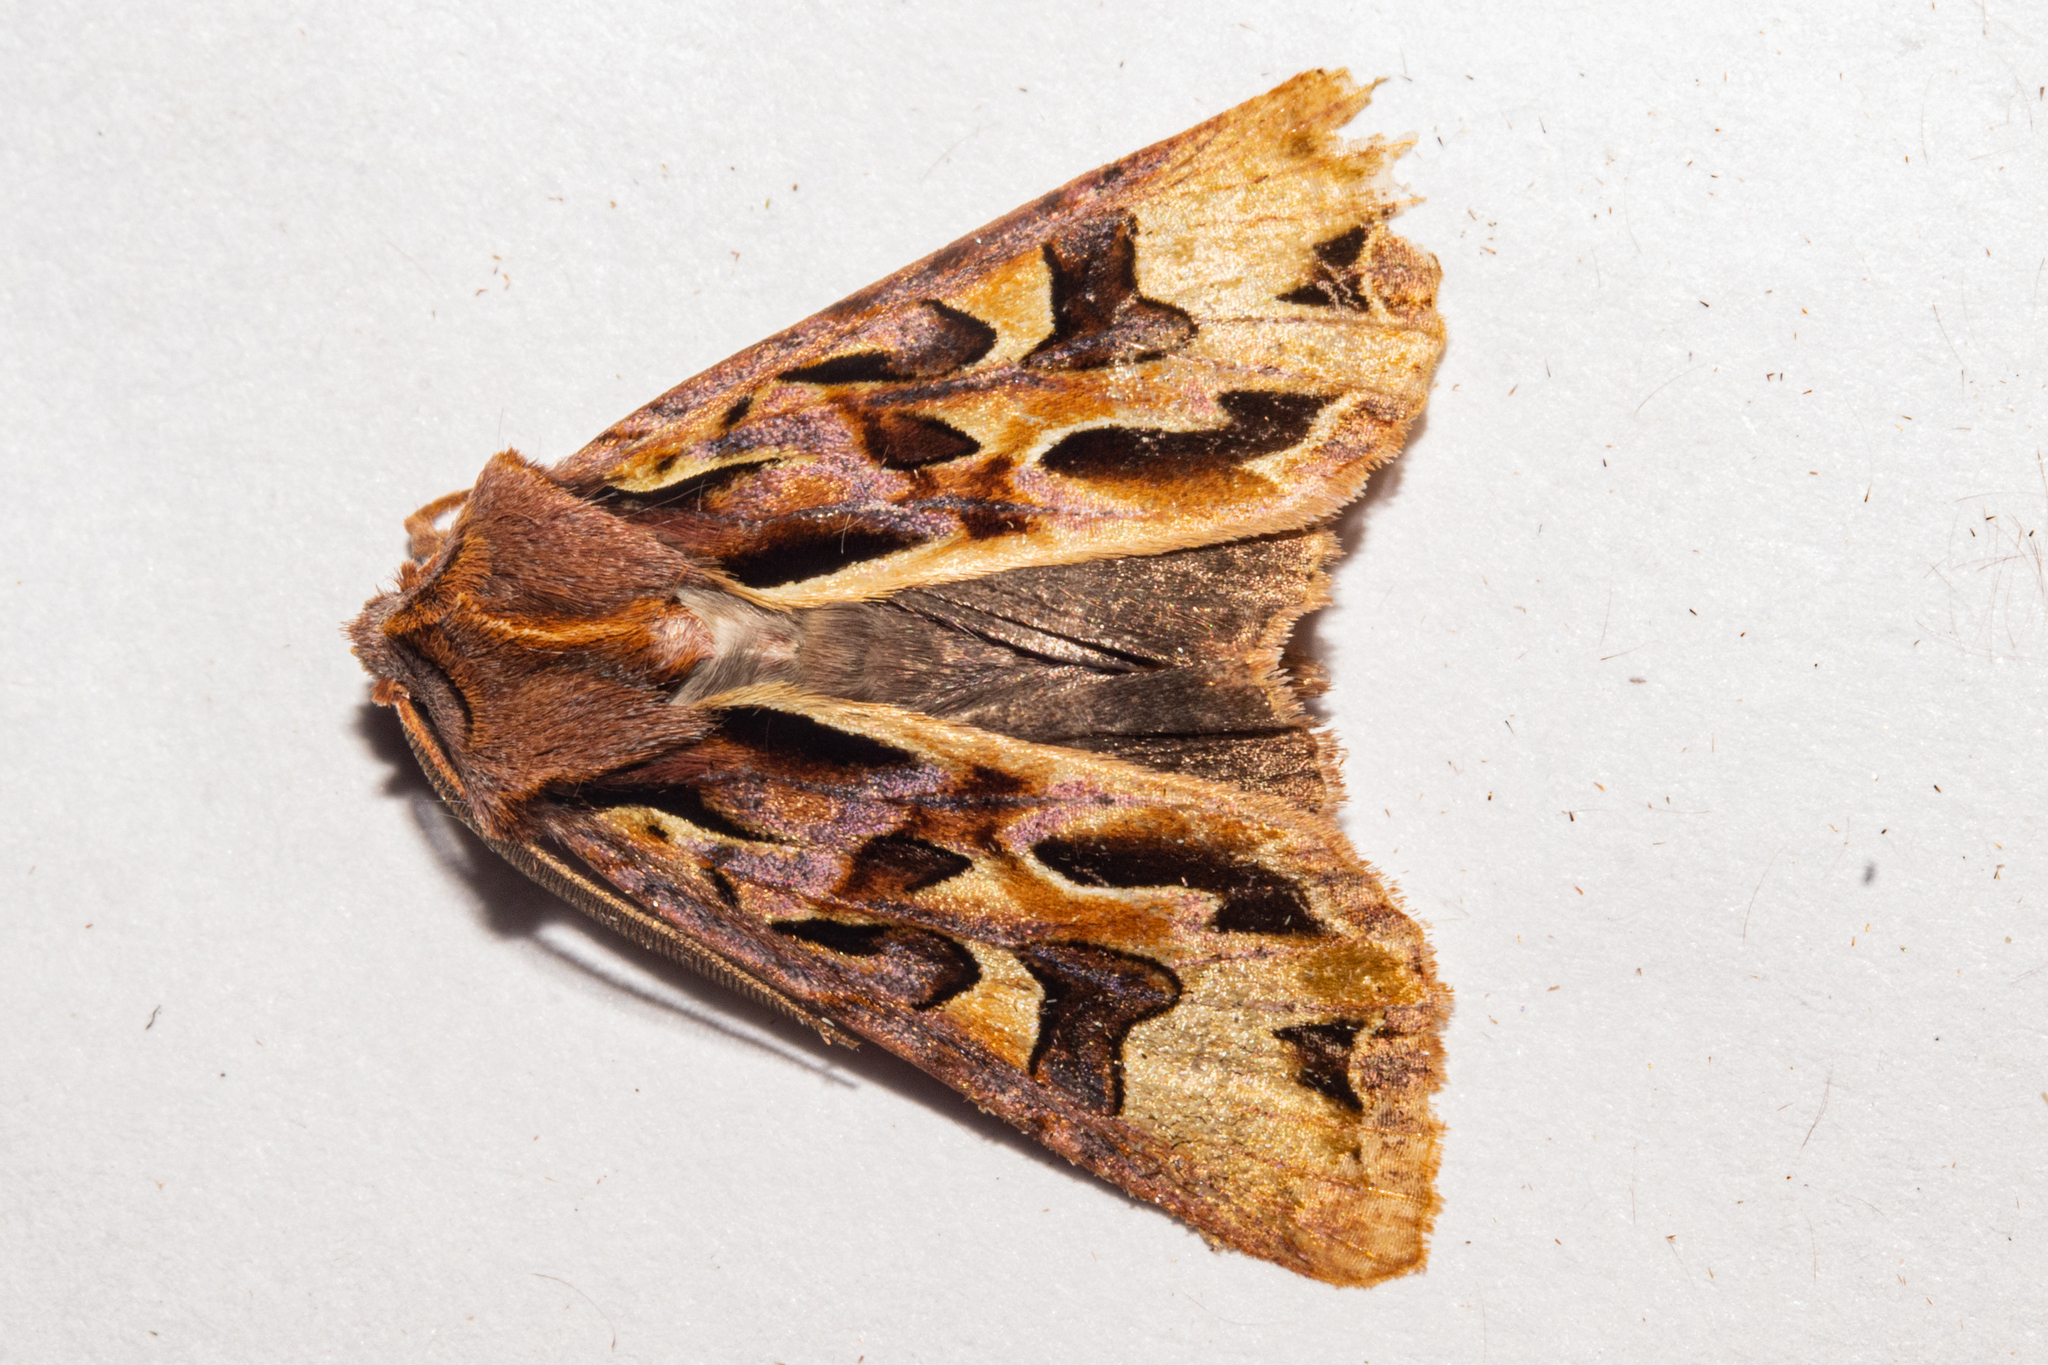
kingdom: Animalia
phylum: Arthropoda
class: Insecta
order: Lepidoptera
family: Noctuidae
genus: Ichneutica
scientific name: Ichneutica
